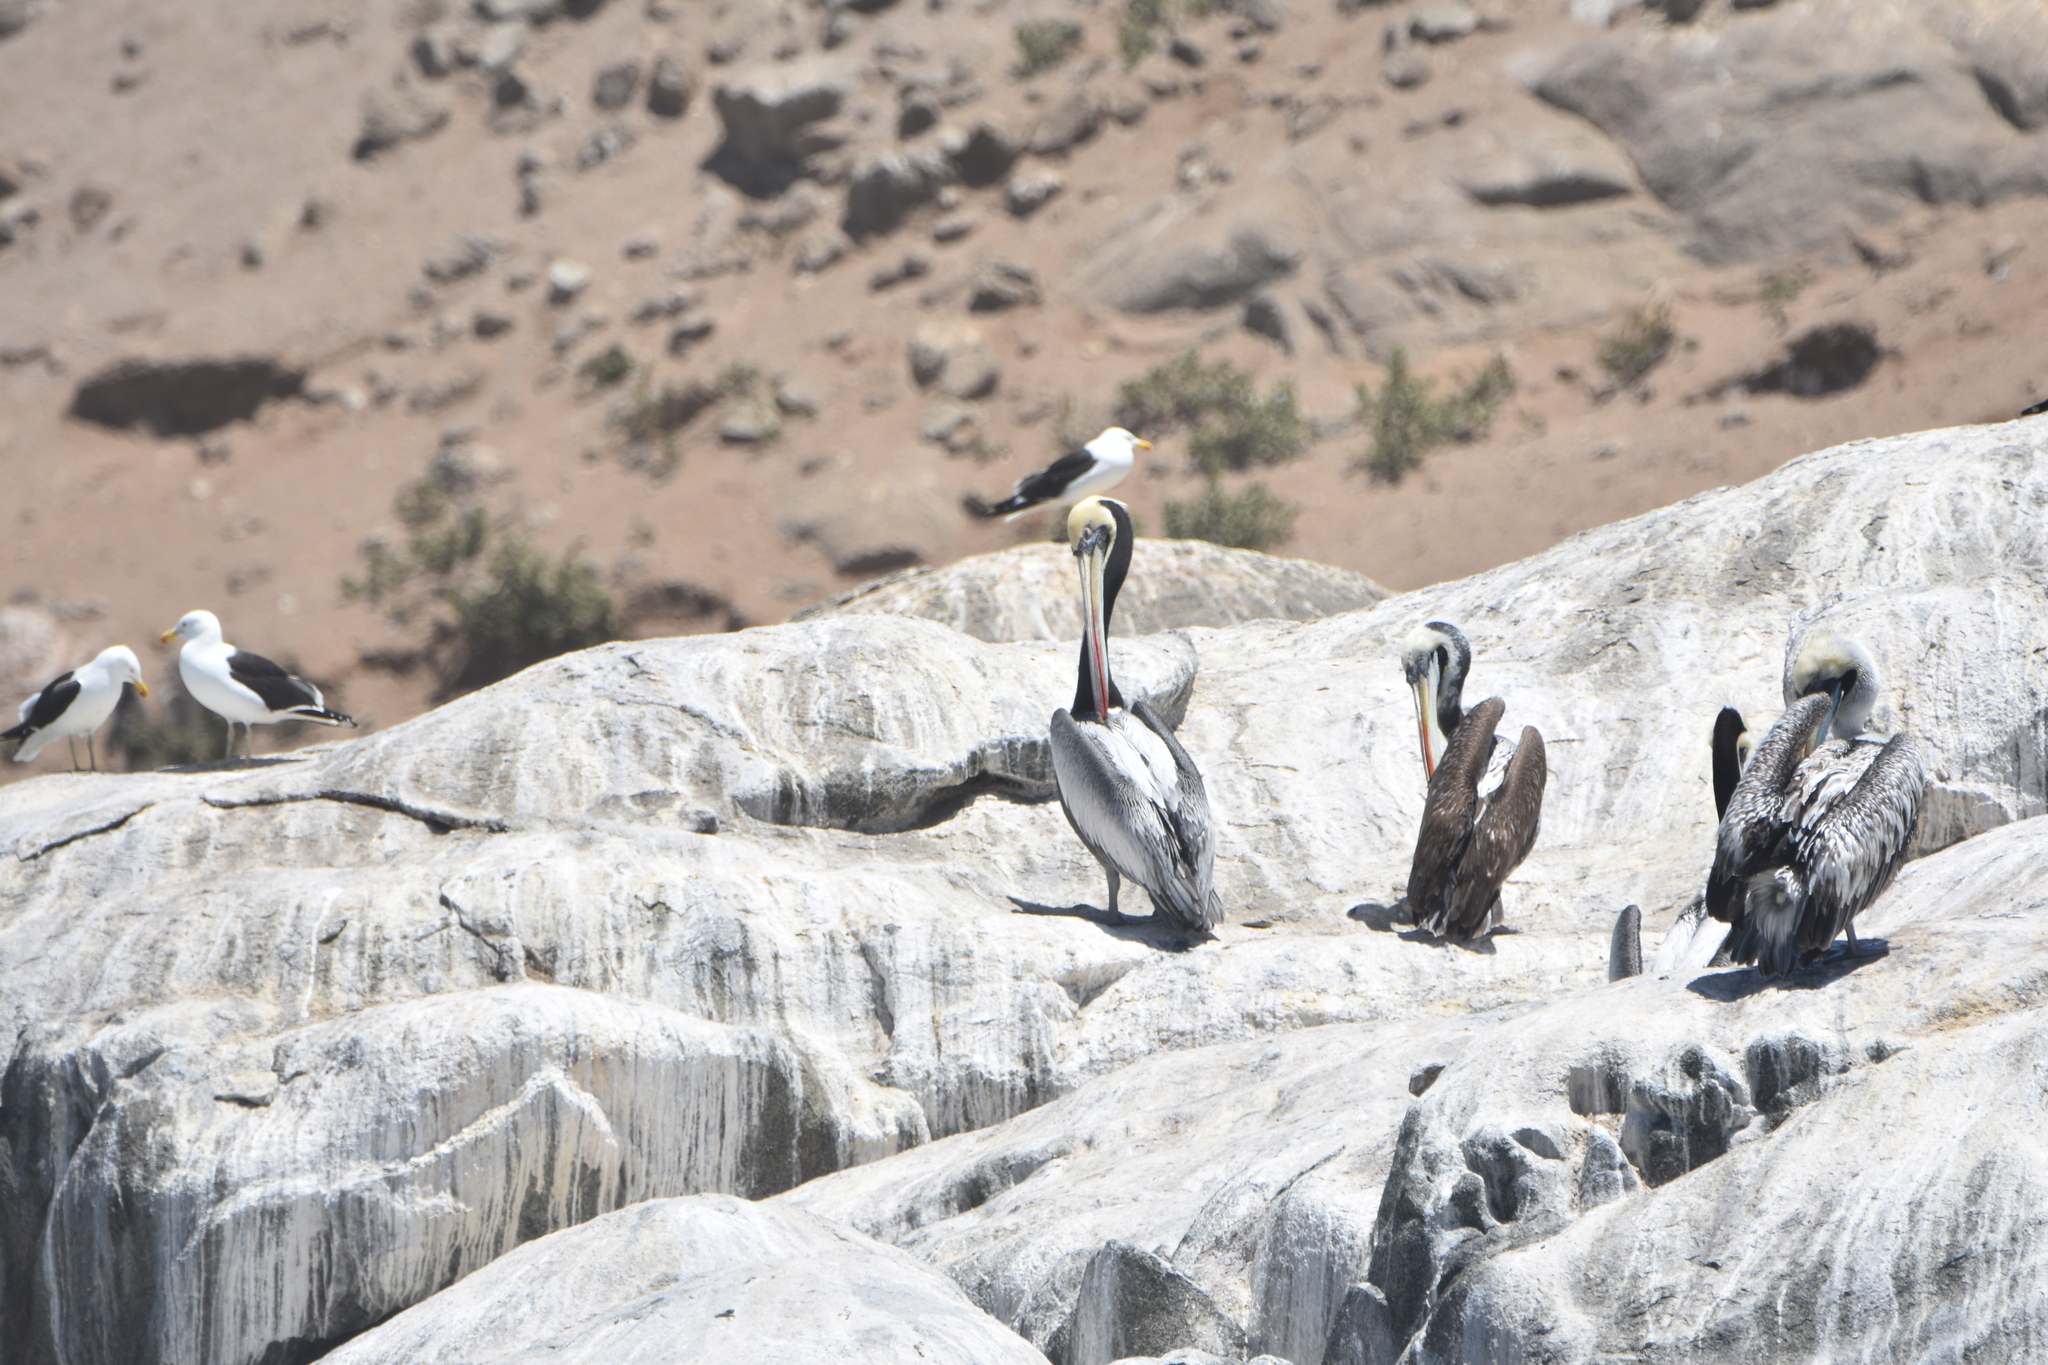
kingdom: Animalia
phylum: Chordata
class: Aves
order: Pelecaniformes
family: Pelecanidae
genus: Pelecanus
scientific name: Pelecanus thagus
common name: Peruvian pelican
